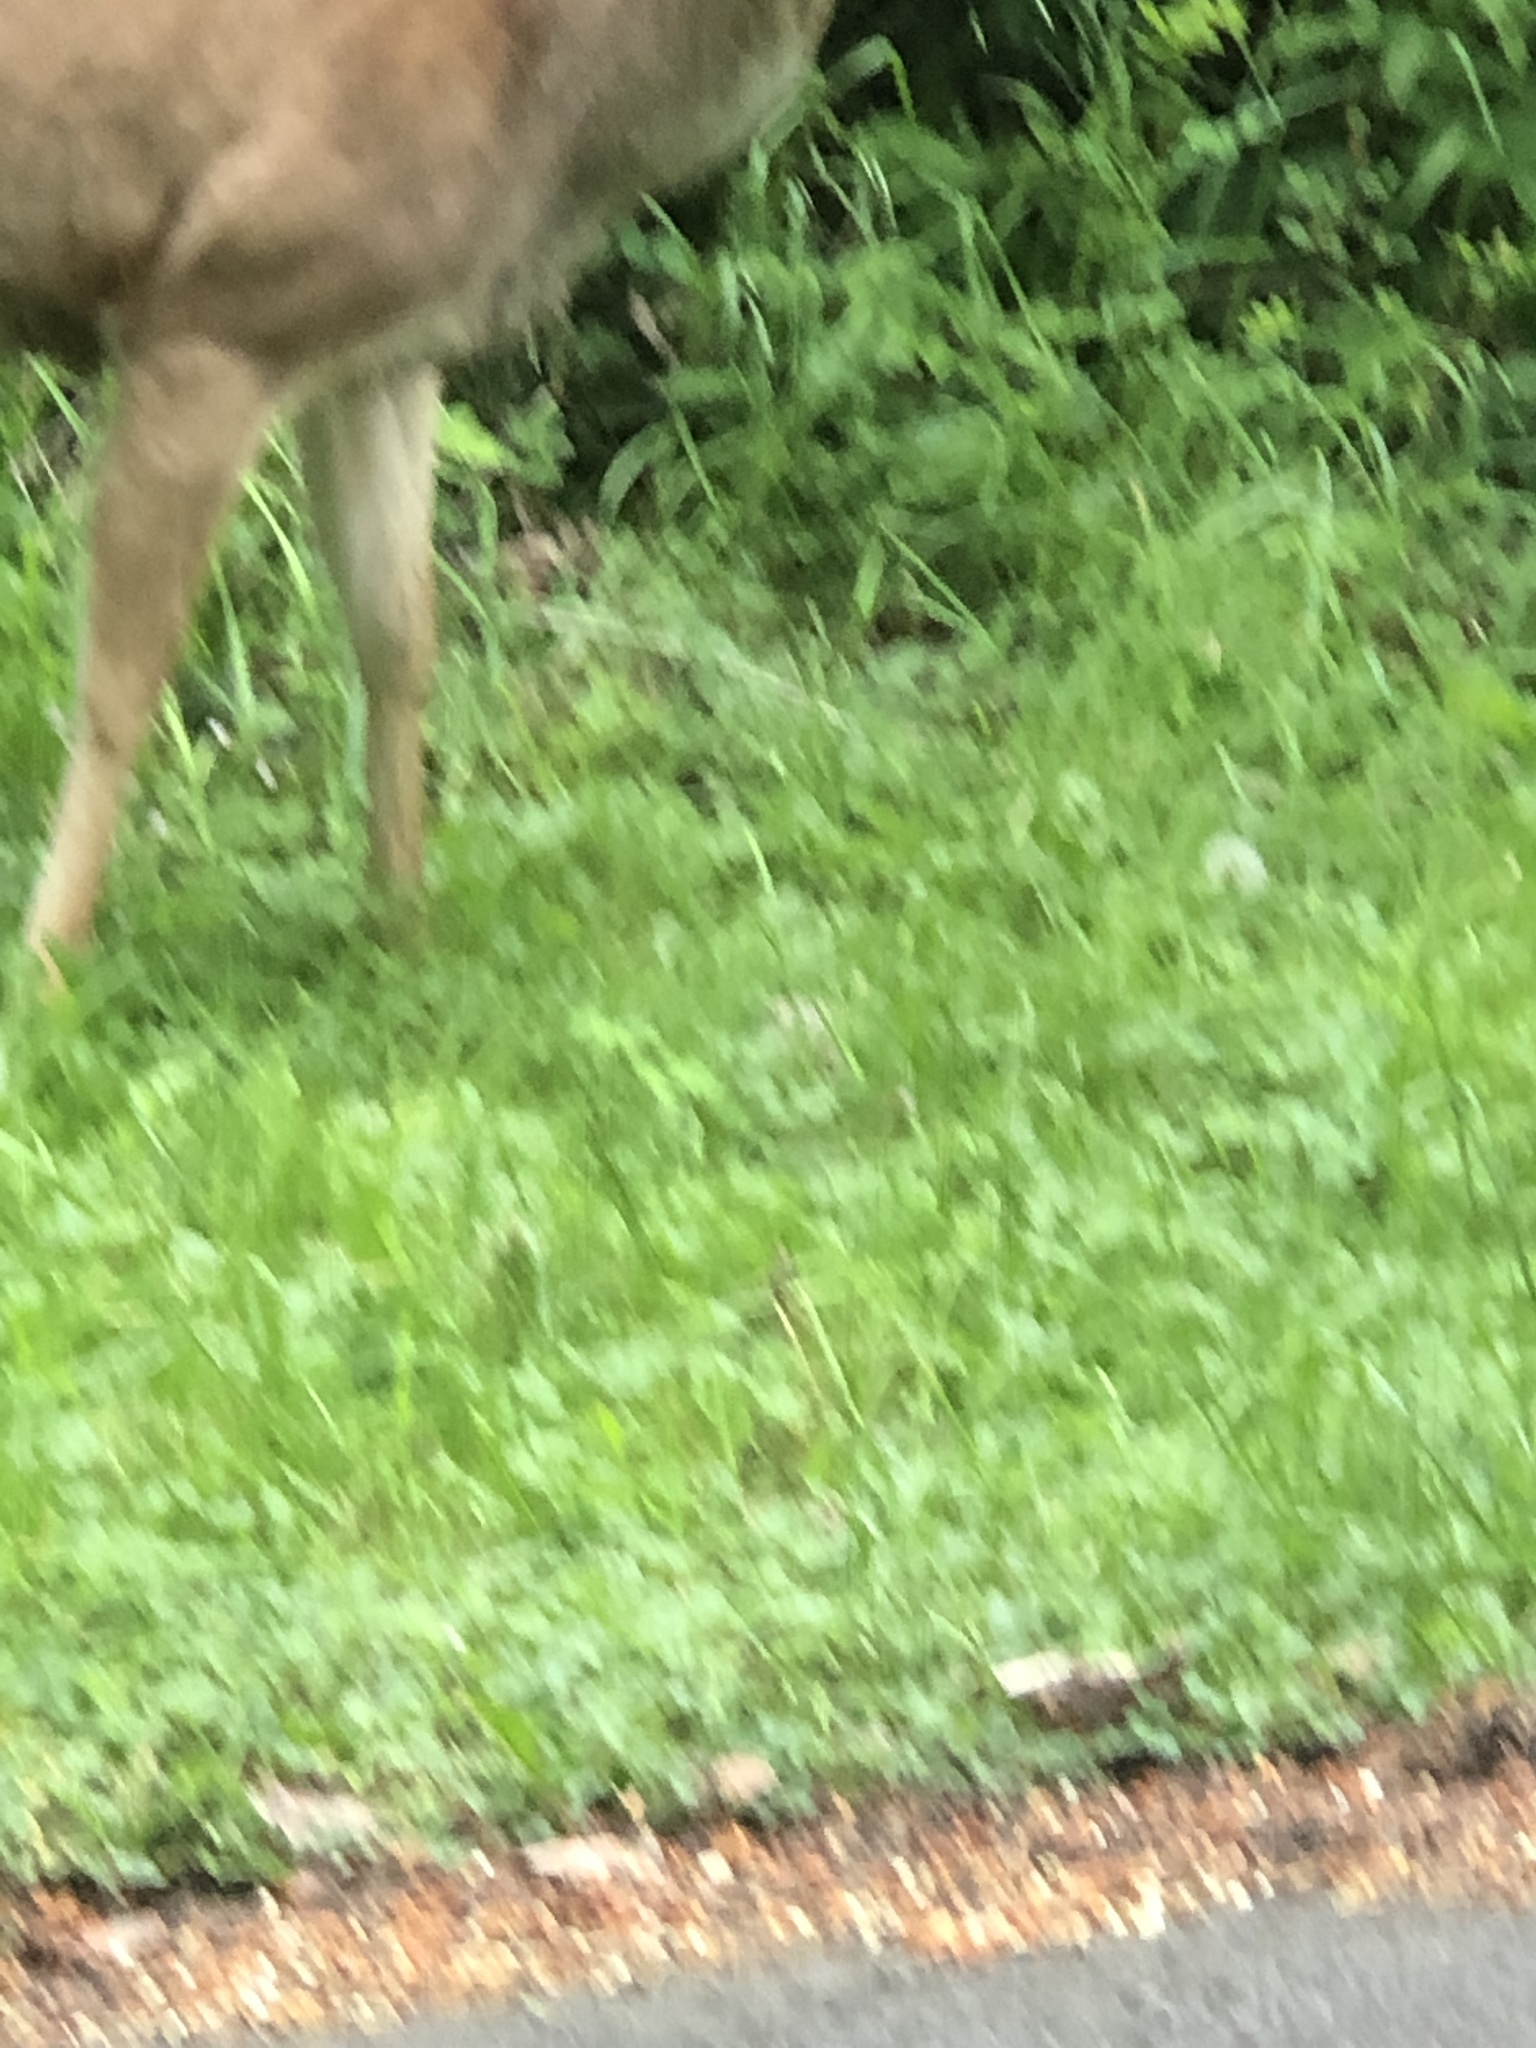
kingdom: Animalia
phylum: Chordata
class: Mammalia
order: Artiodactyla
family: Cervidae
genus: Odocoileus
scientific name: Odocoileus hemionus
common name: Mule deer
